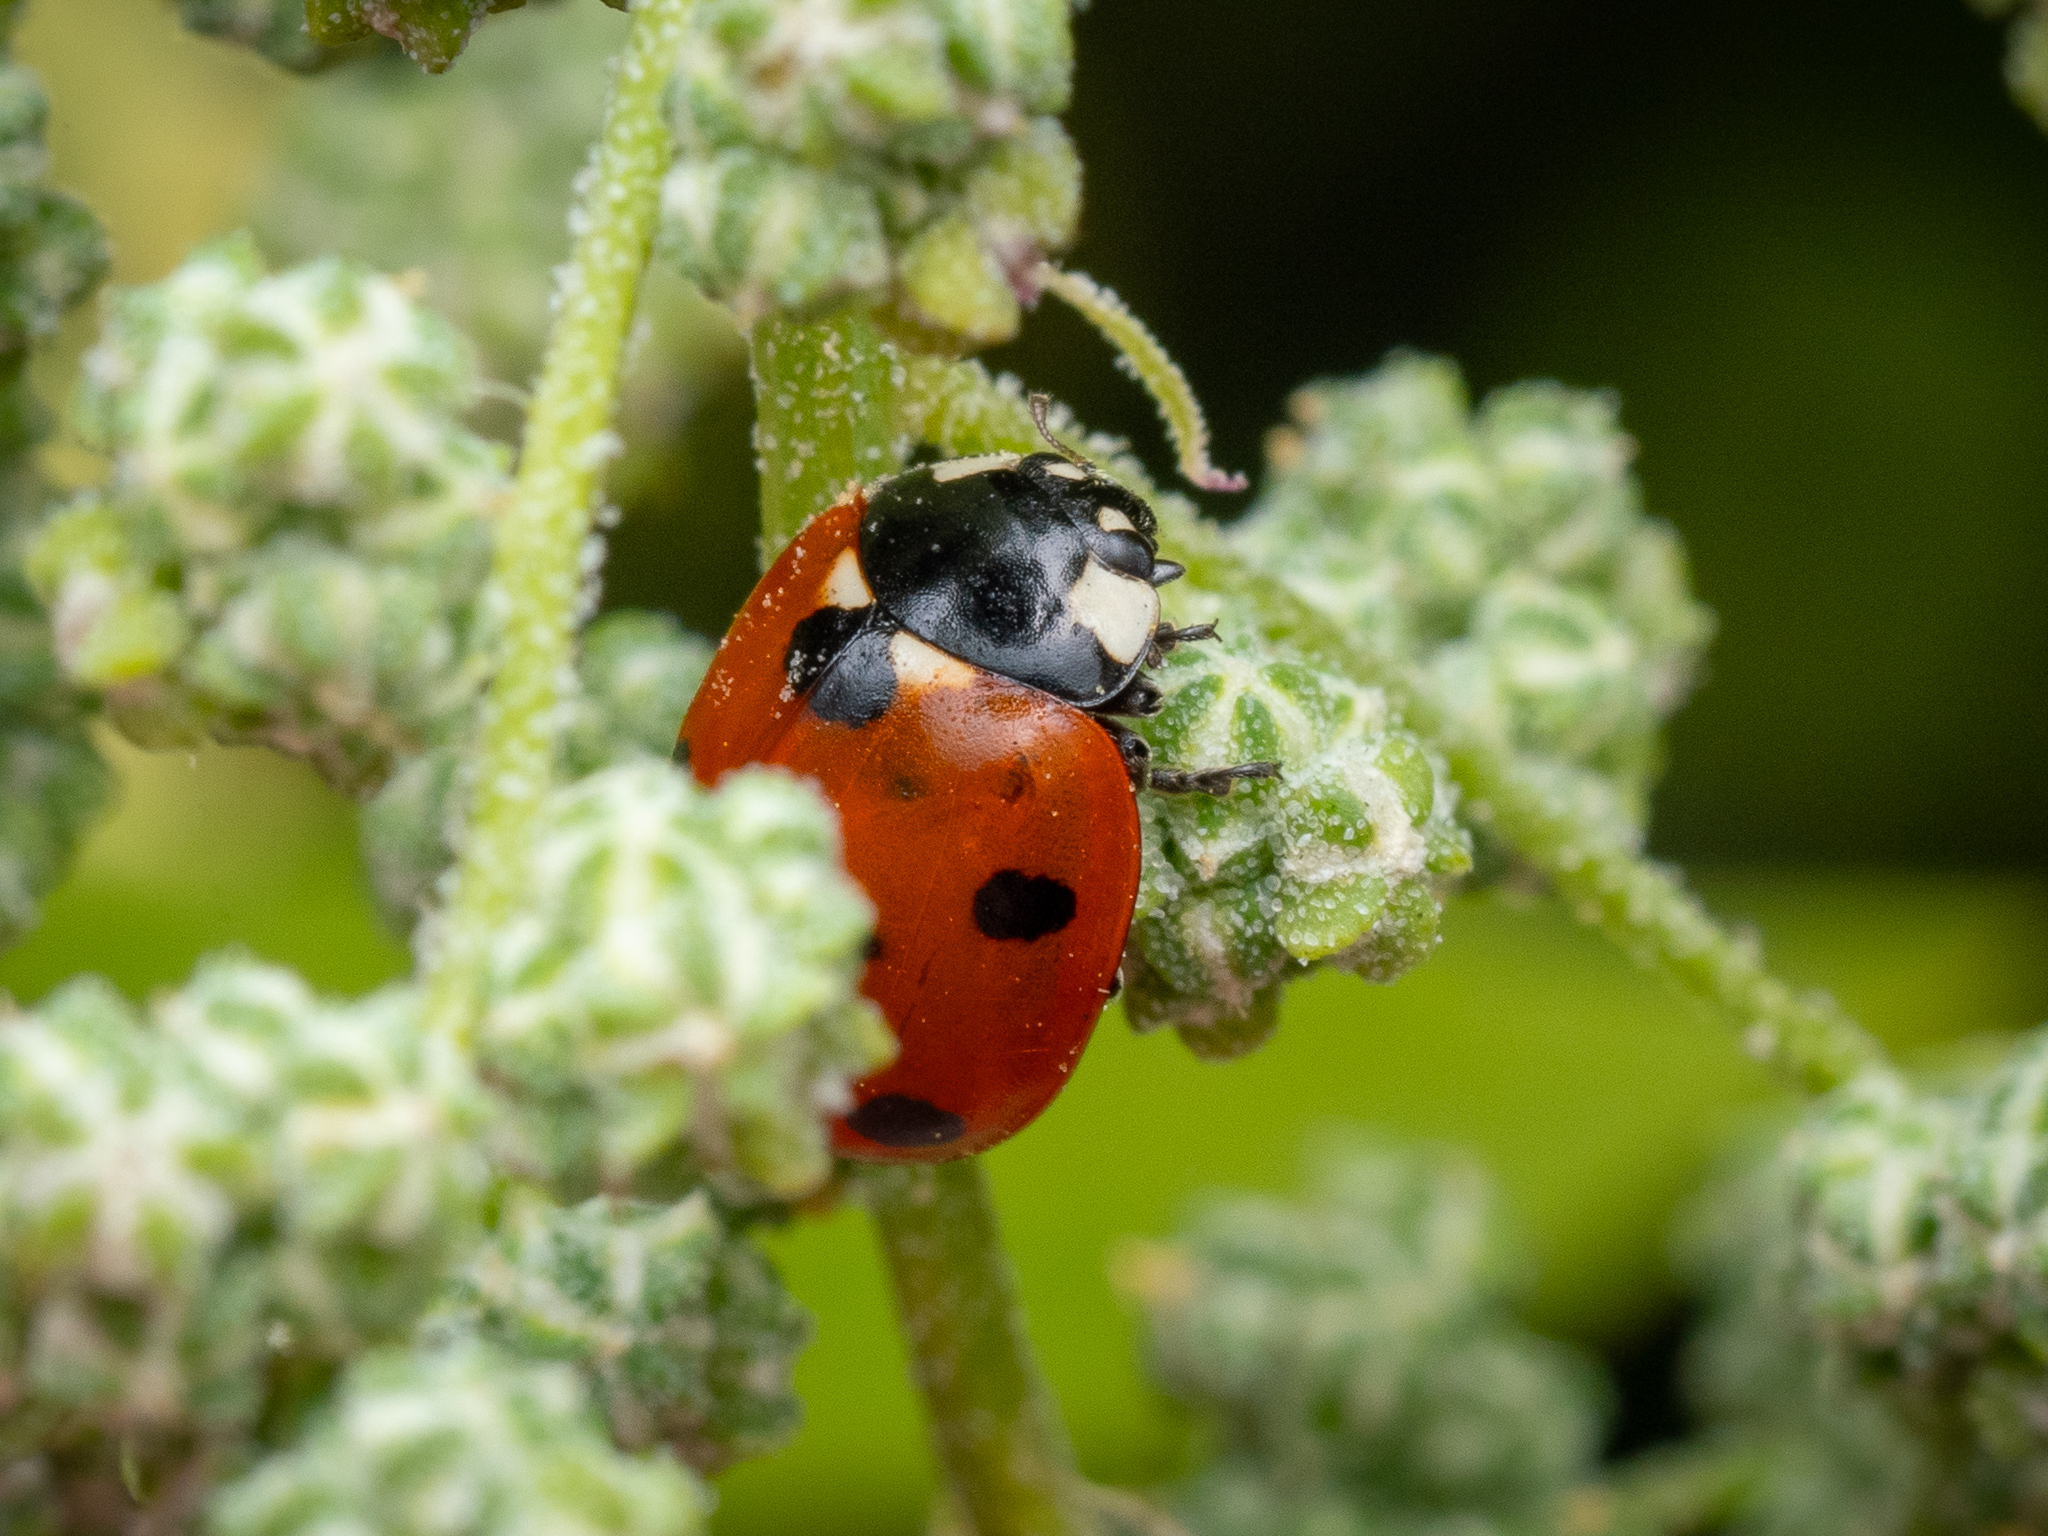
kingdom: Animalia
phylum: Arthropoda
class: Insecta
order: Coleoptera
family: Coccinellidae
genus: Coccinella
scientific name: Coccinella septempunctata
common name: Sevenspotted lady beetle
